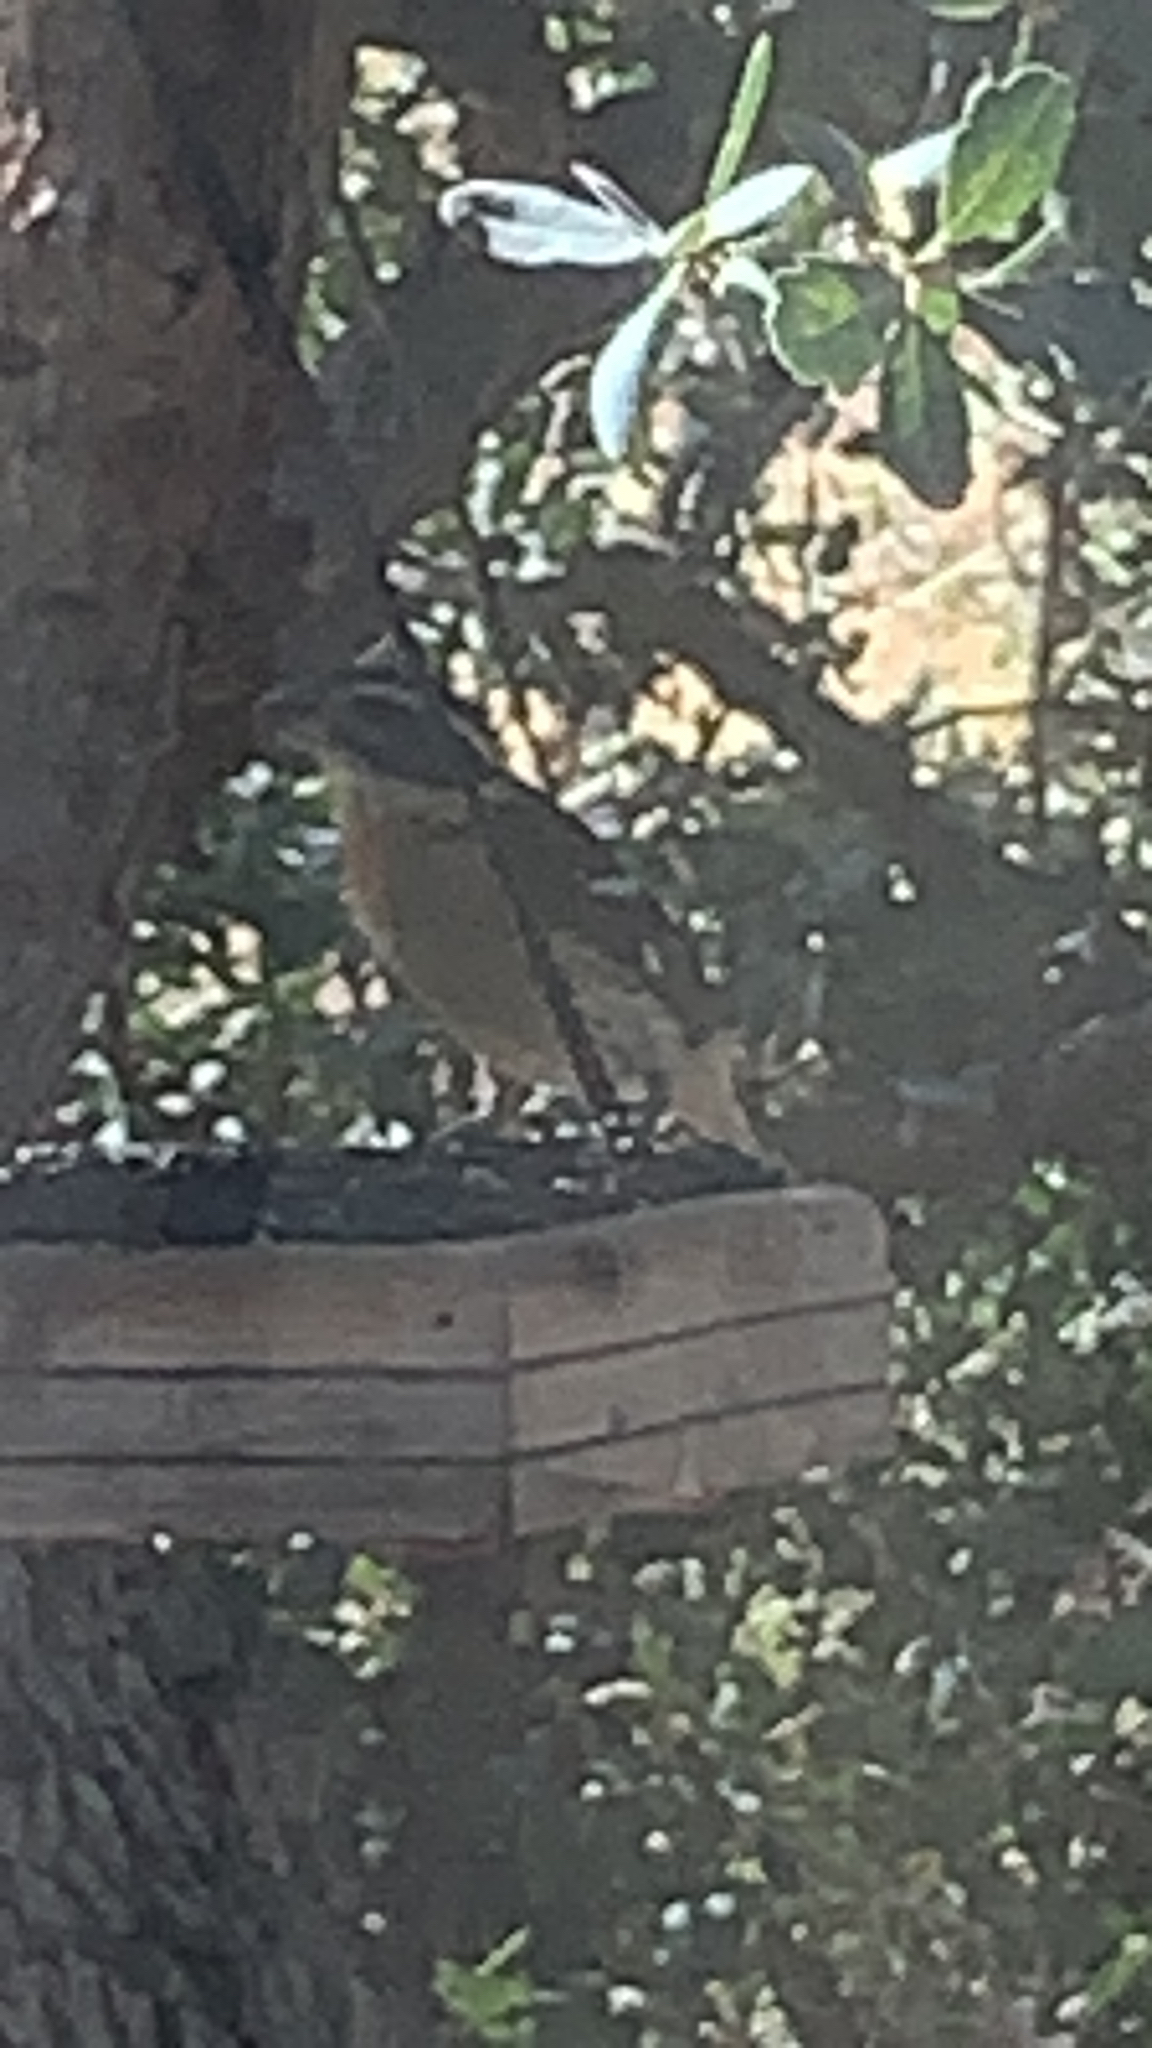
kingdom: Animalia
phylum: Chordata
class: Aves
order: Passeriformes
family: Cardinalidae
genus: Pheucticus
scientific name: Pheucticus melanocephalus
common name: Black-headed grosbeak
